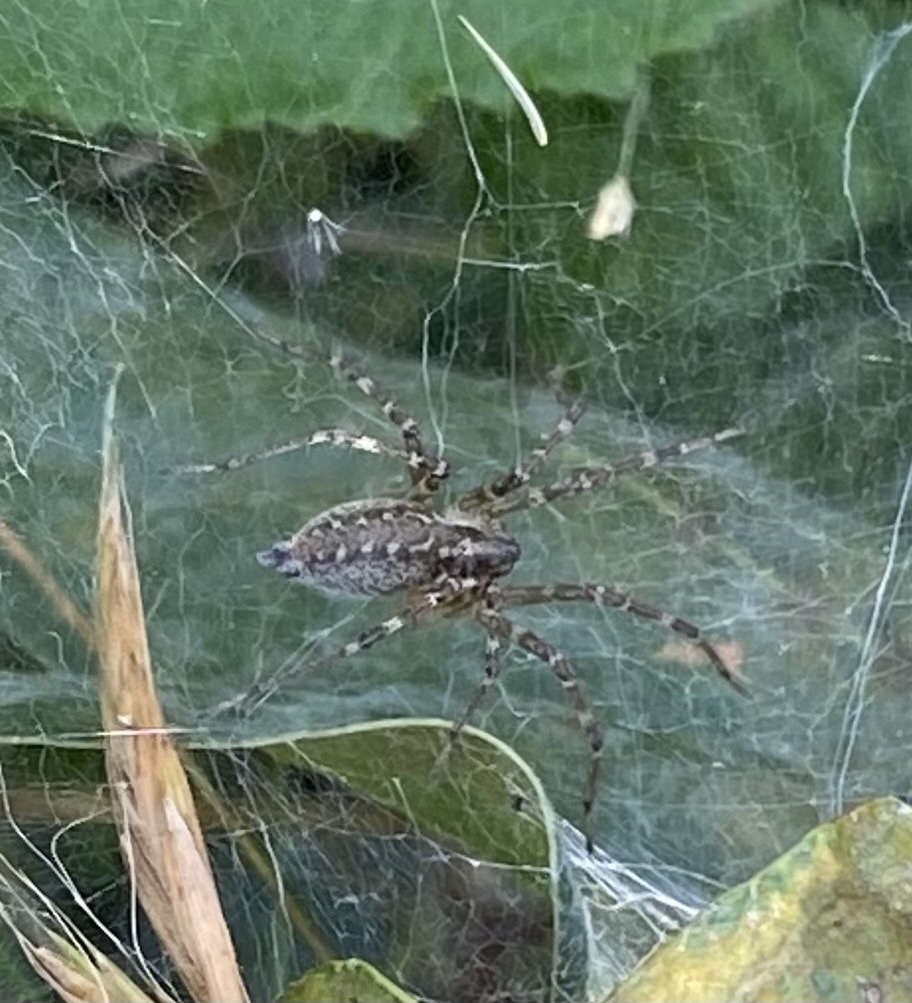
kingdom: Animalia
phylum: Arthropoda
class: Arachnida
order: Araneae
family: Agelenidae
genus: Allagelena
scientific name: Allagelena gracilens
